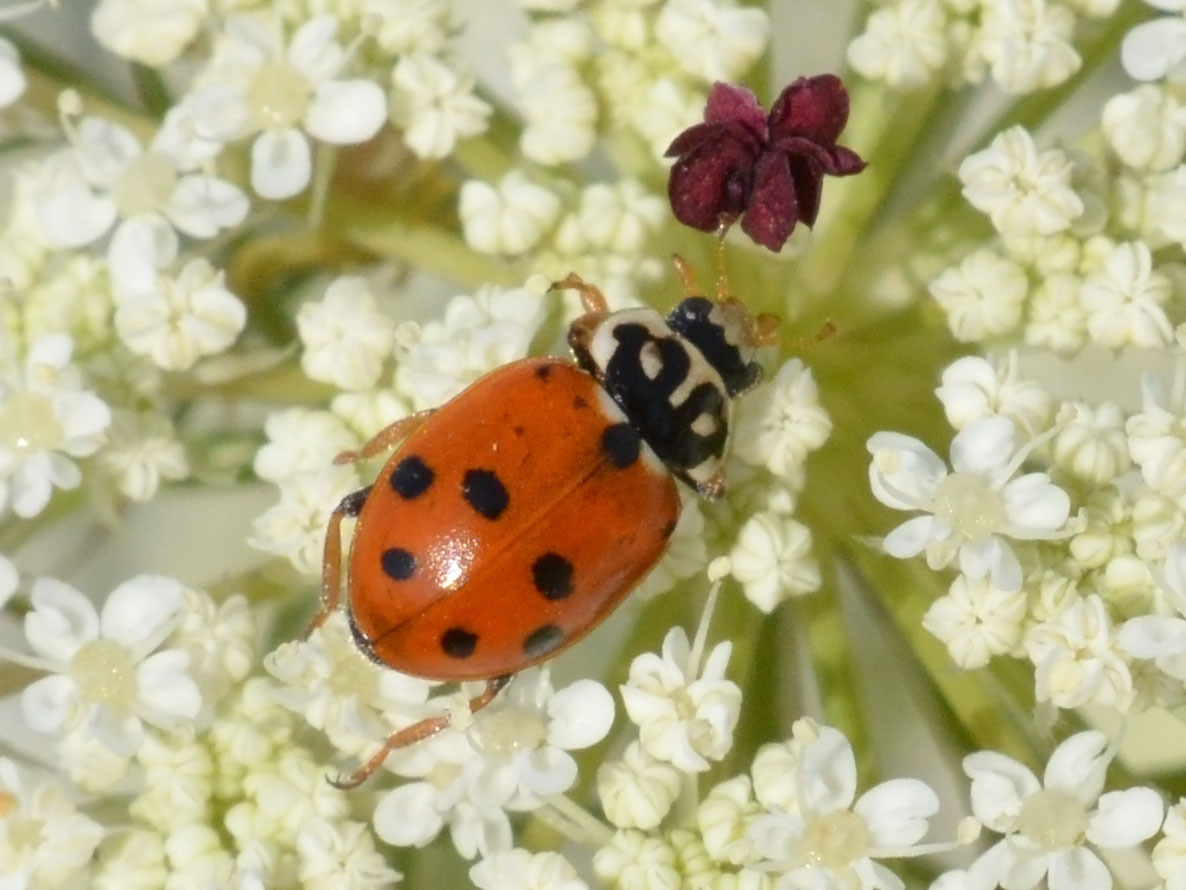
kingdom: Animalia
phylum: Arthropoda
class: Insecta
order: Coleoptera
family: Coccinellidae
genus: Hippodamia
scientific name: Hippodamia variegata
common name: Ladybird beetle
